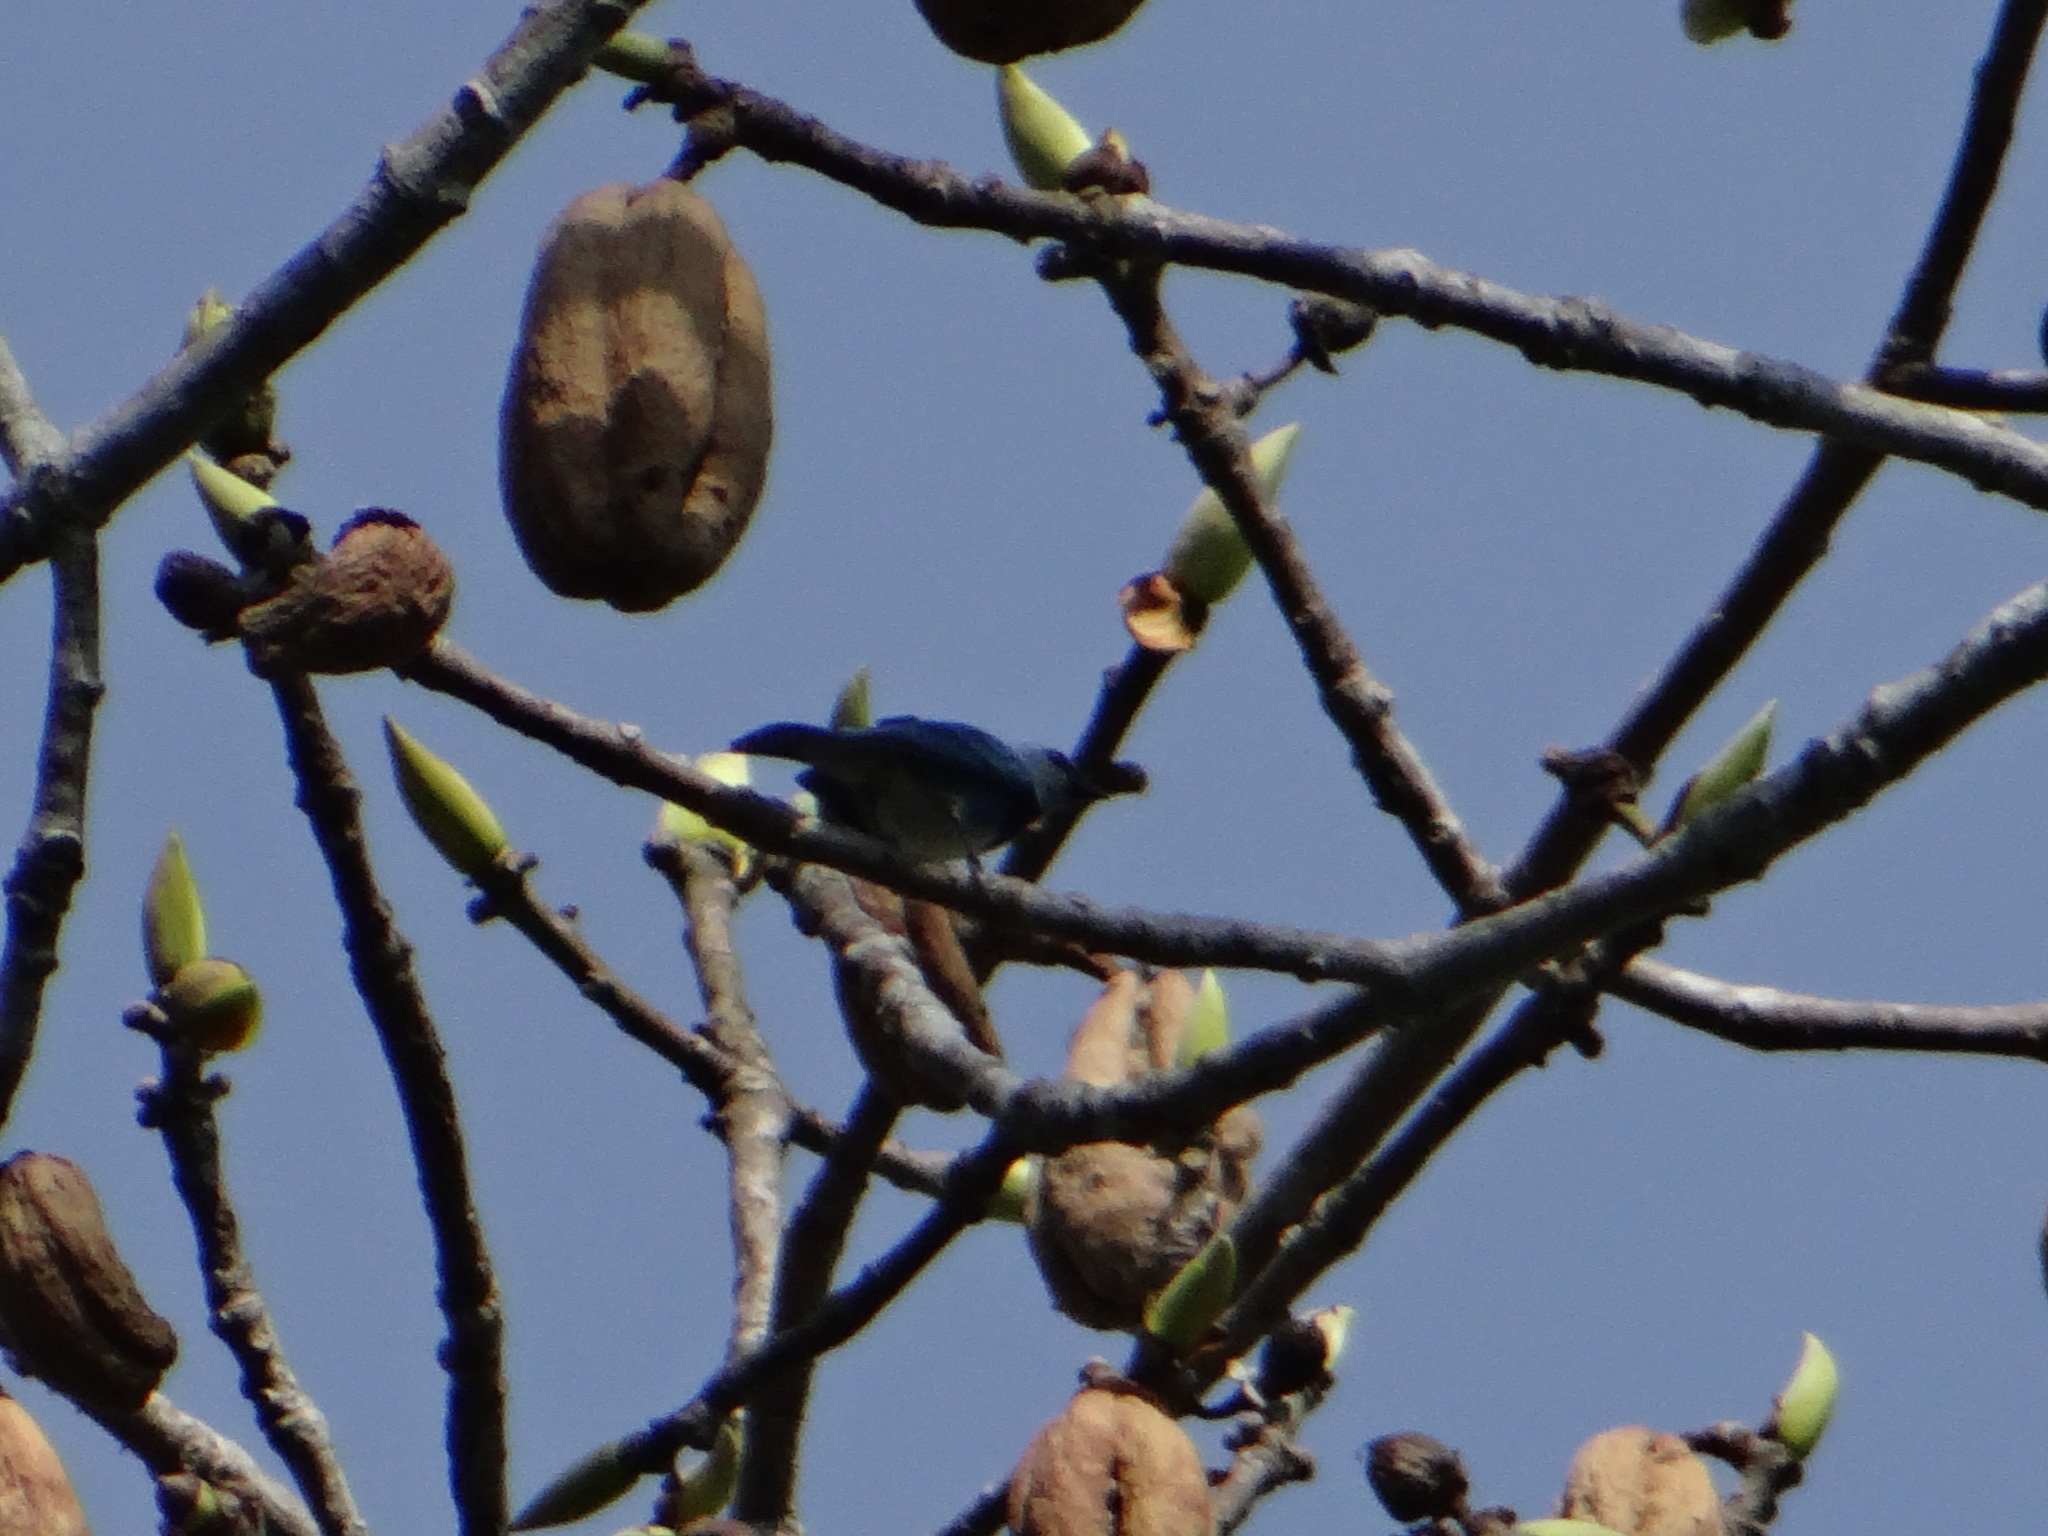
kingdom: Animalia
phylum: Chordata
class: Aves
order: Passeriformes
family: Thraupidae
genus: Stilpnia
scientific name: Stilpnia nigrocincta
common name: Masked tanager
